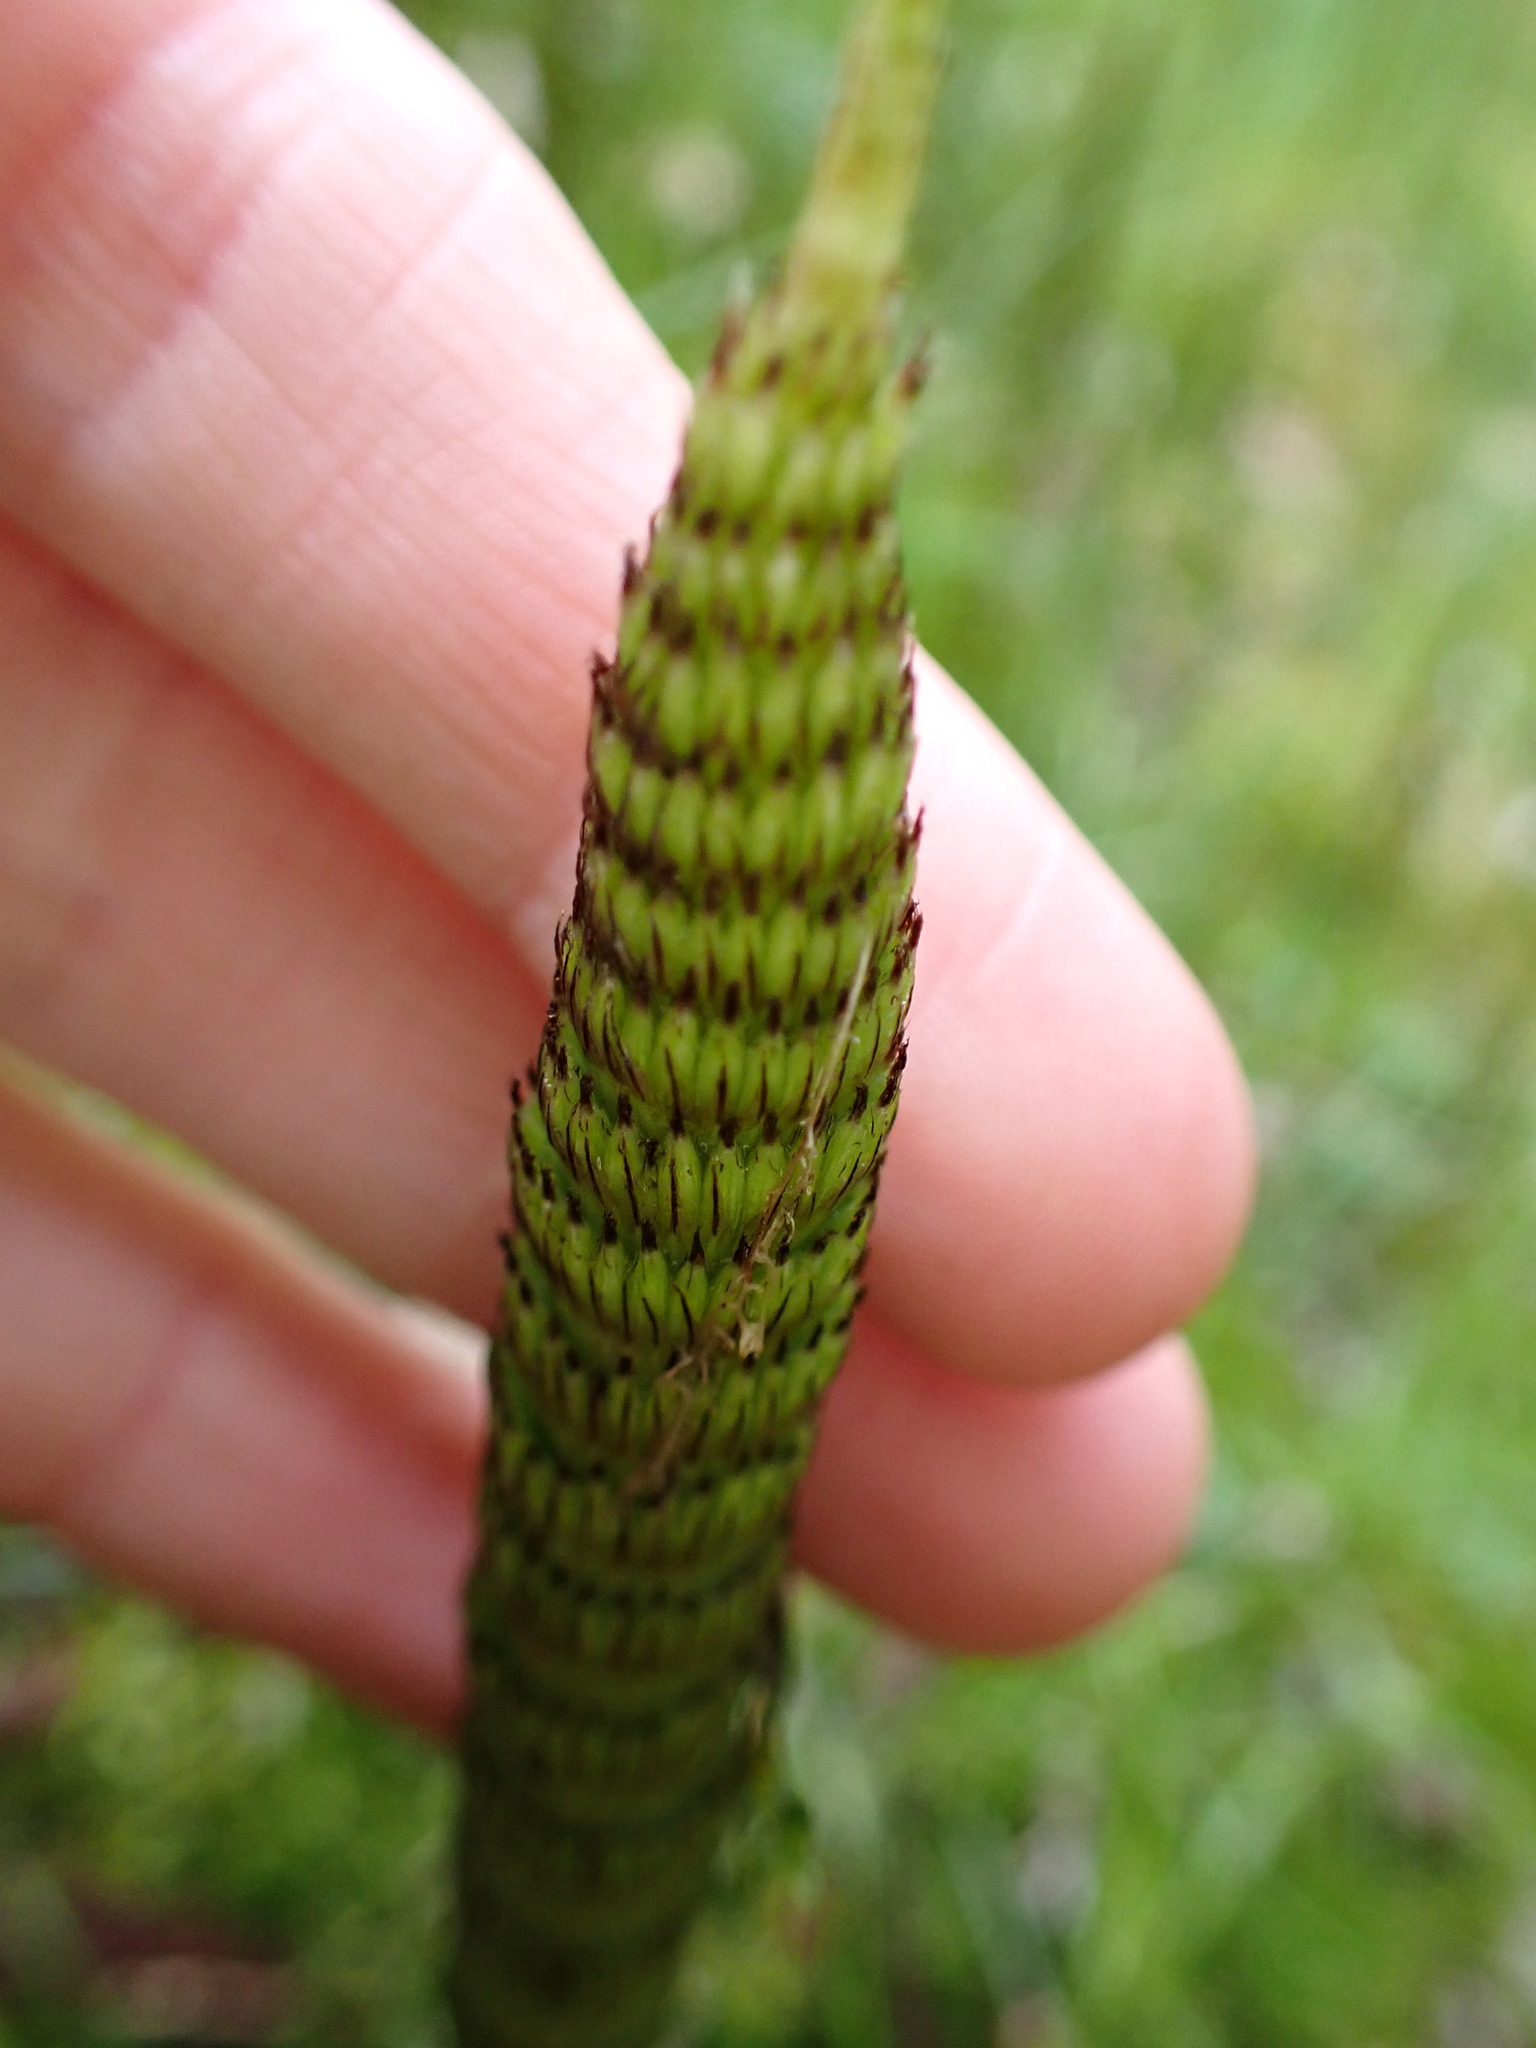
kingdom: Plantae
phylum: Tracheophyta
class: Polypodiopsida
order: Equisetales
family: Equisetaceae
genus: Equisetum
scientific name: Equisetum braunii
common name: Braun's horsetail
